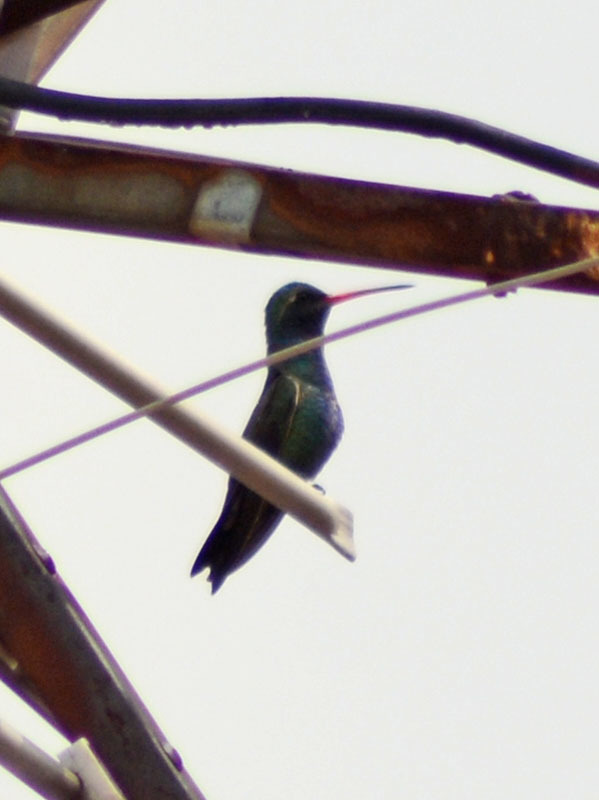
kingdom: Animalia
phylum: Chordata
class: Aves
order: Apodiformes
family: Trochilidae
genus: Cynanthus
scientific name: Cynanthus latirostris
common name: Broad-billed hummingbird
